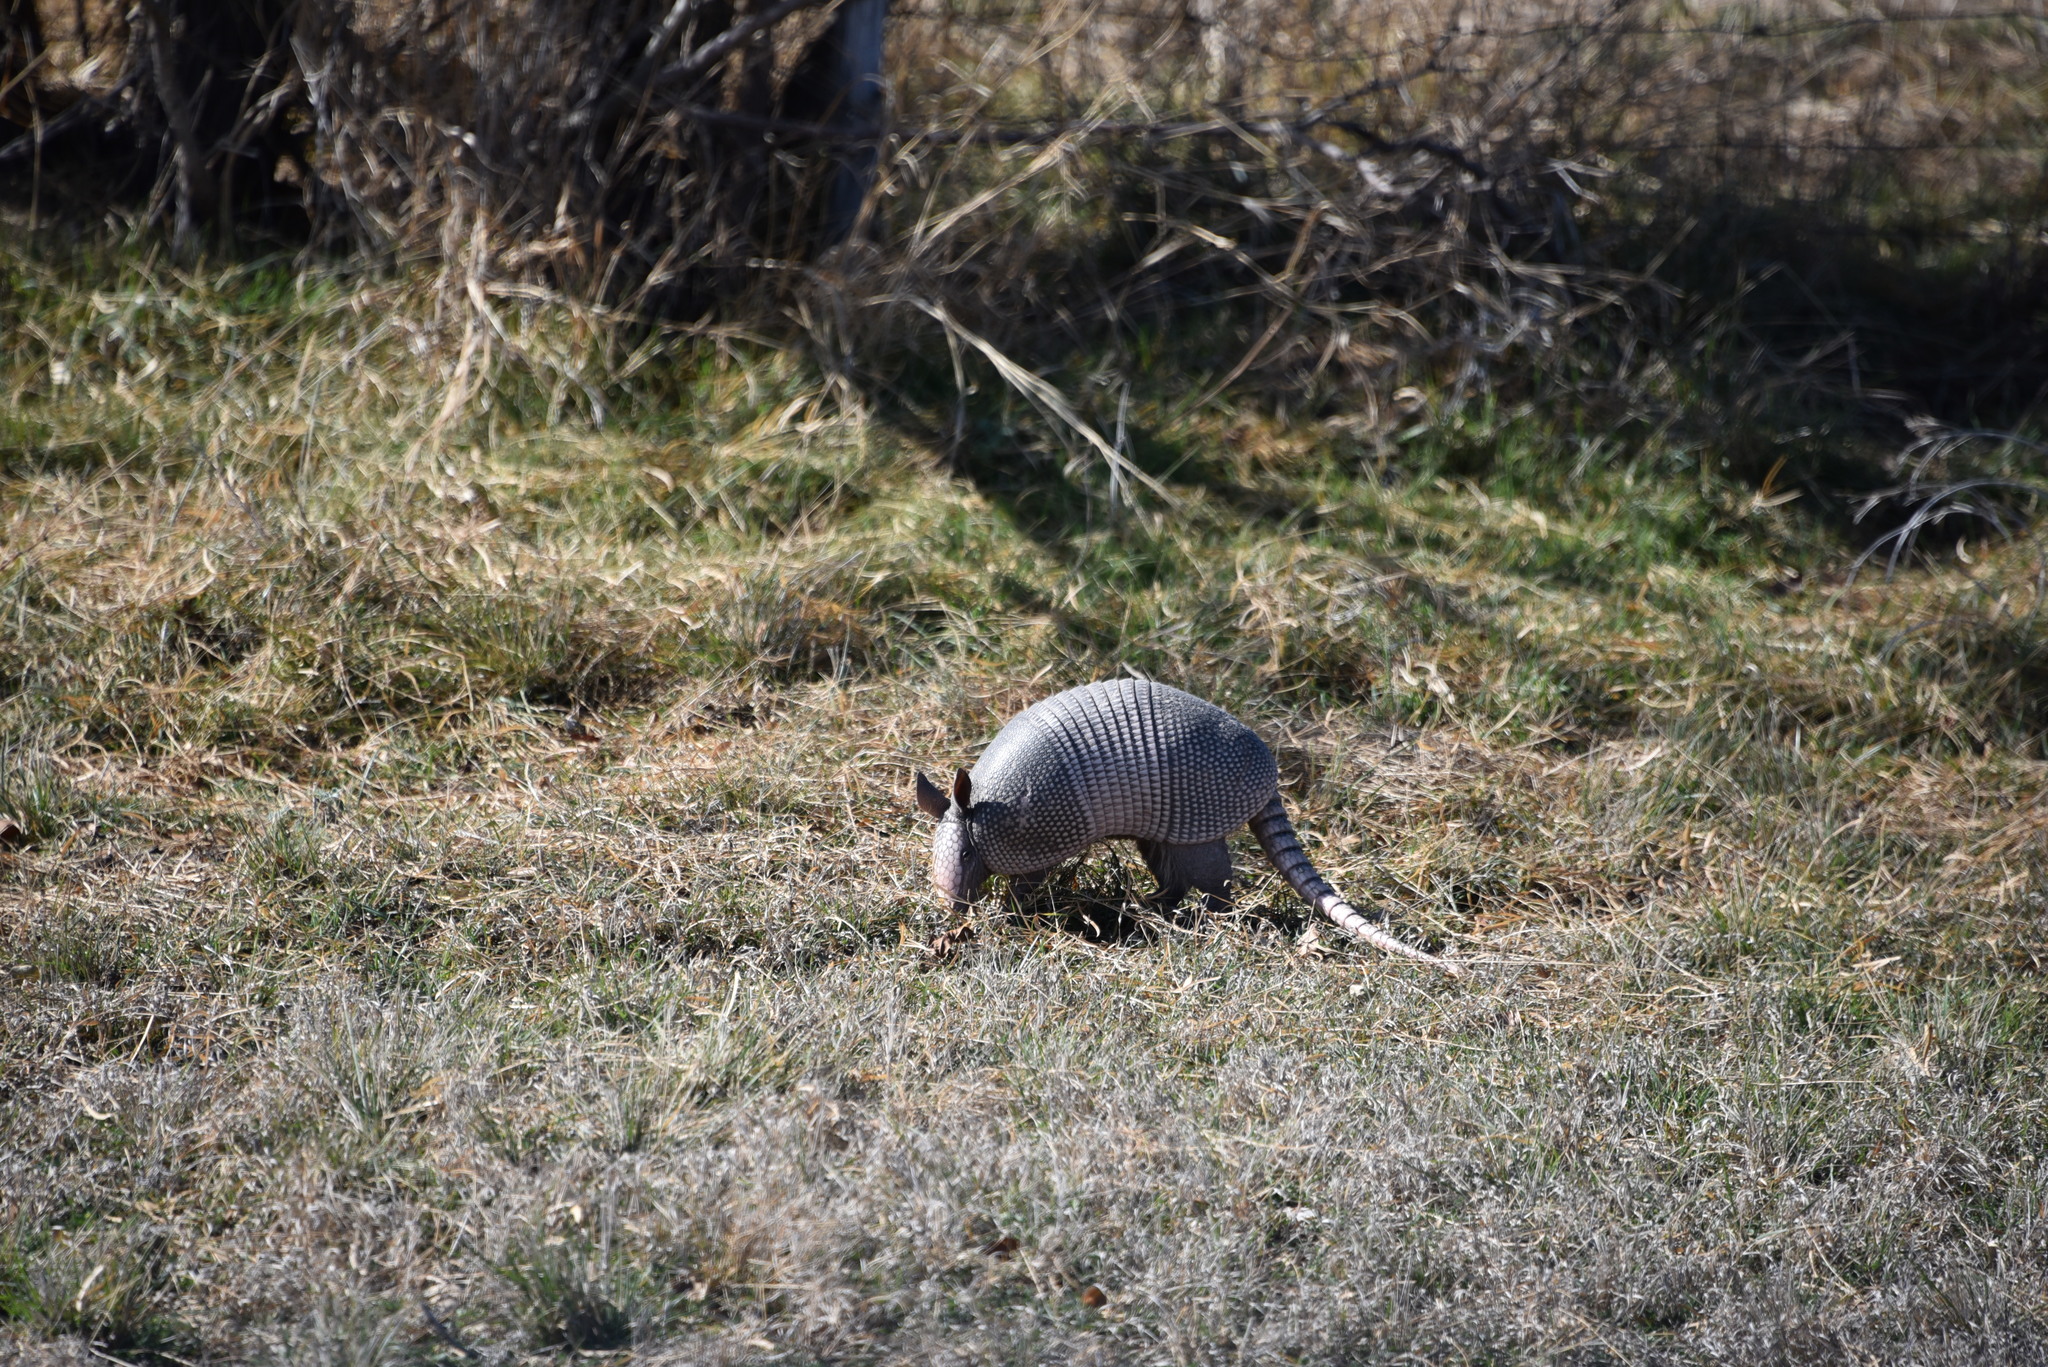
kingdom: Animalia
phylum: Chordata
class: Mammalia
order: Cingulata
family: Dasypodidae
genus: Dasypus
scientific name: Dasypus novemcinctus
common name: Nine-banded armadillo
